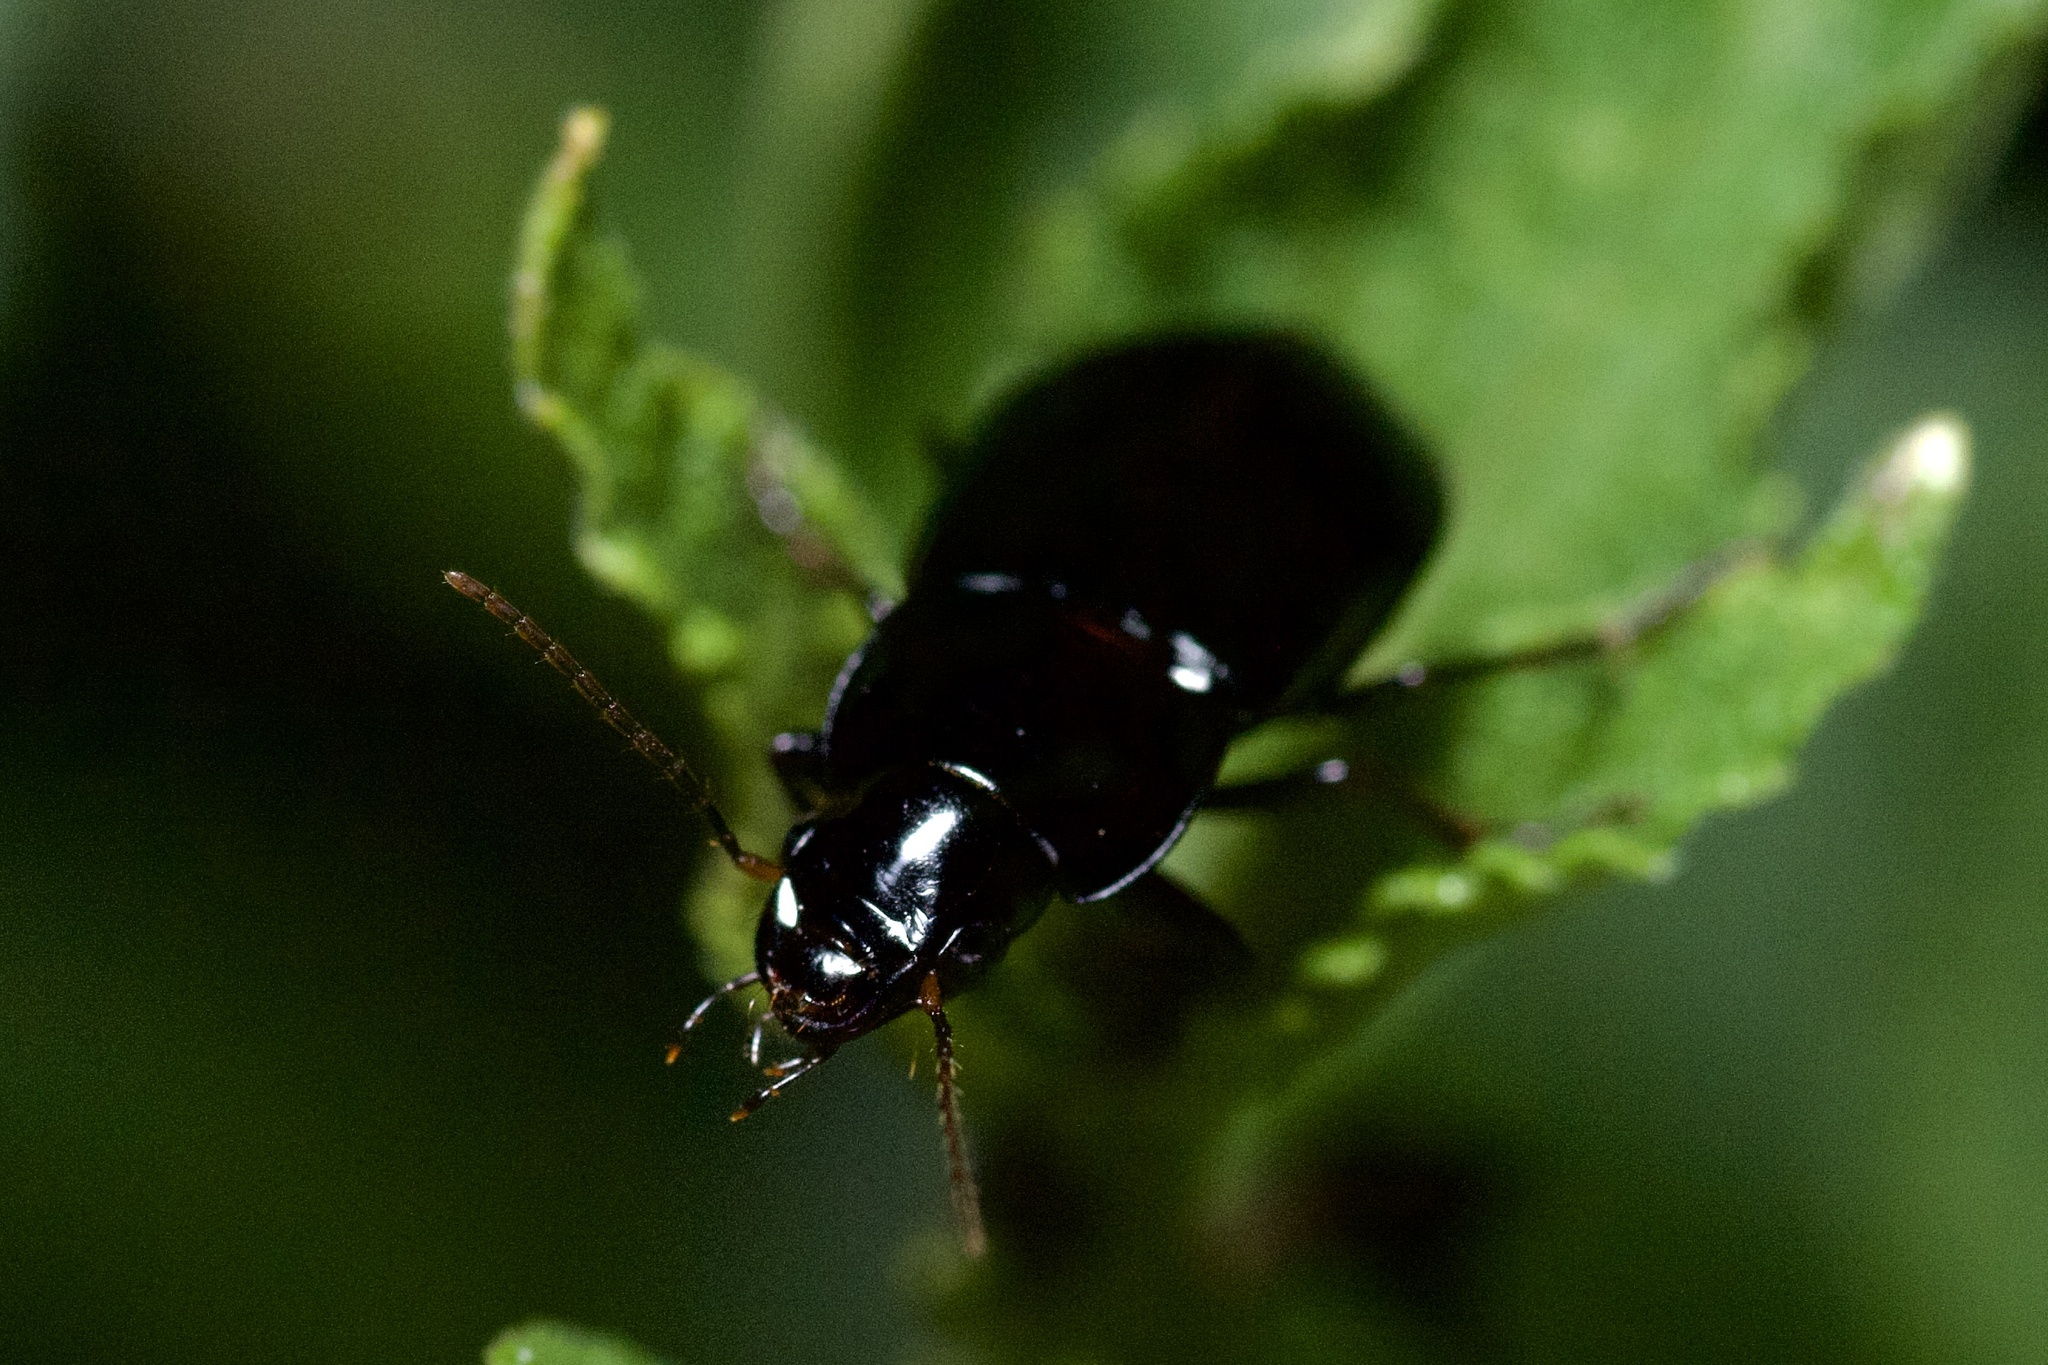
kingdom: Animalia
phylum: Arthropoda
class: Insecta
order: Coleoptera
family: Carabidae
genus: Aztecarpalus
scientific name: Aztecarpalus schaefferi
